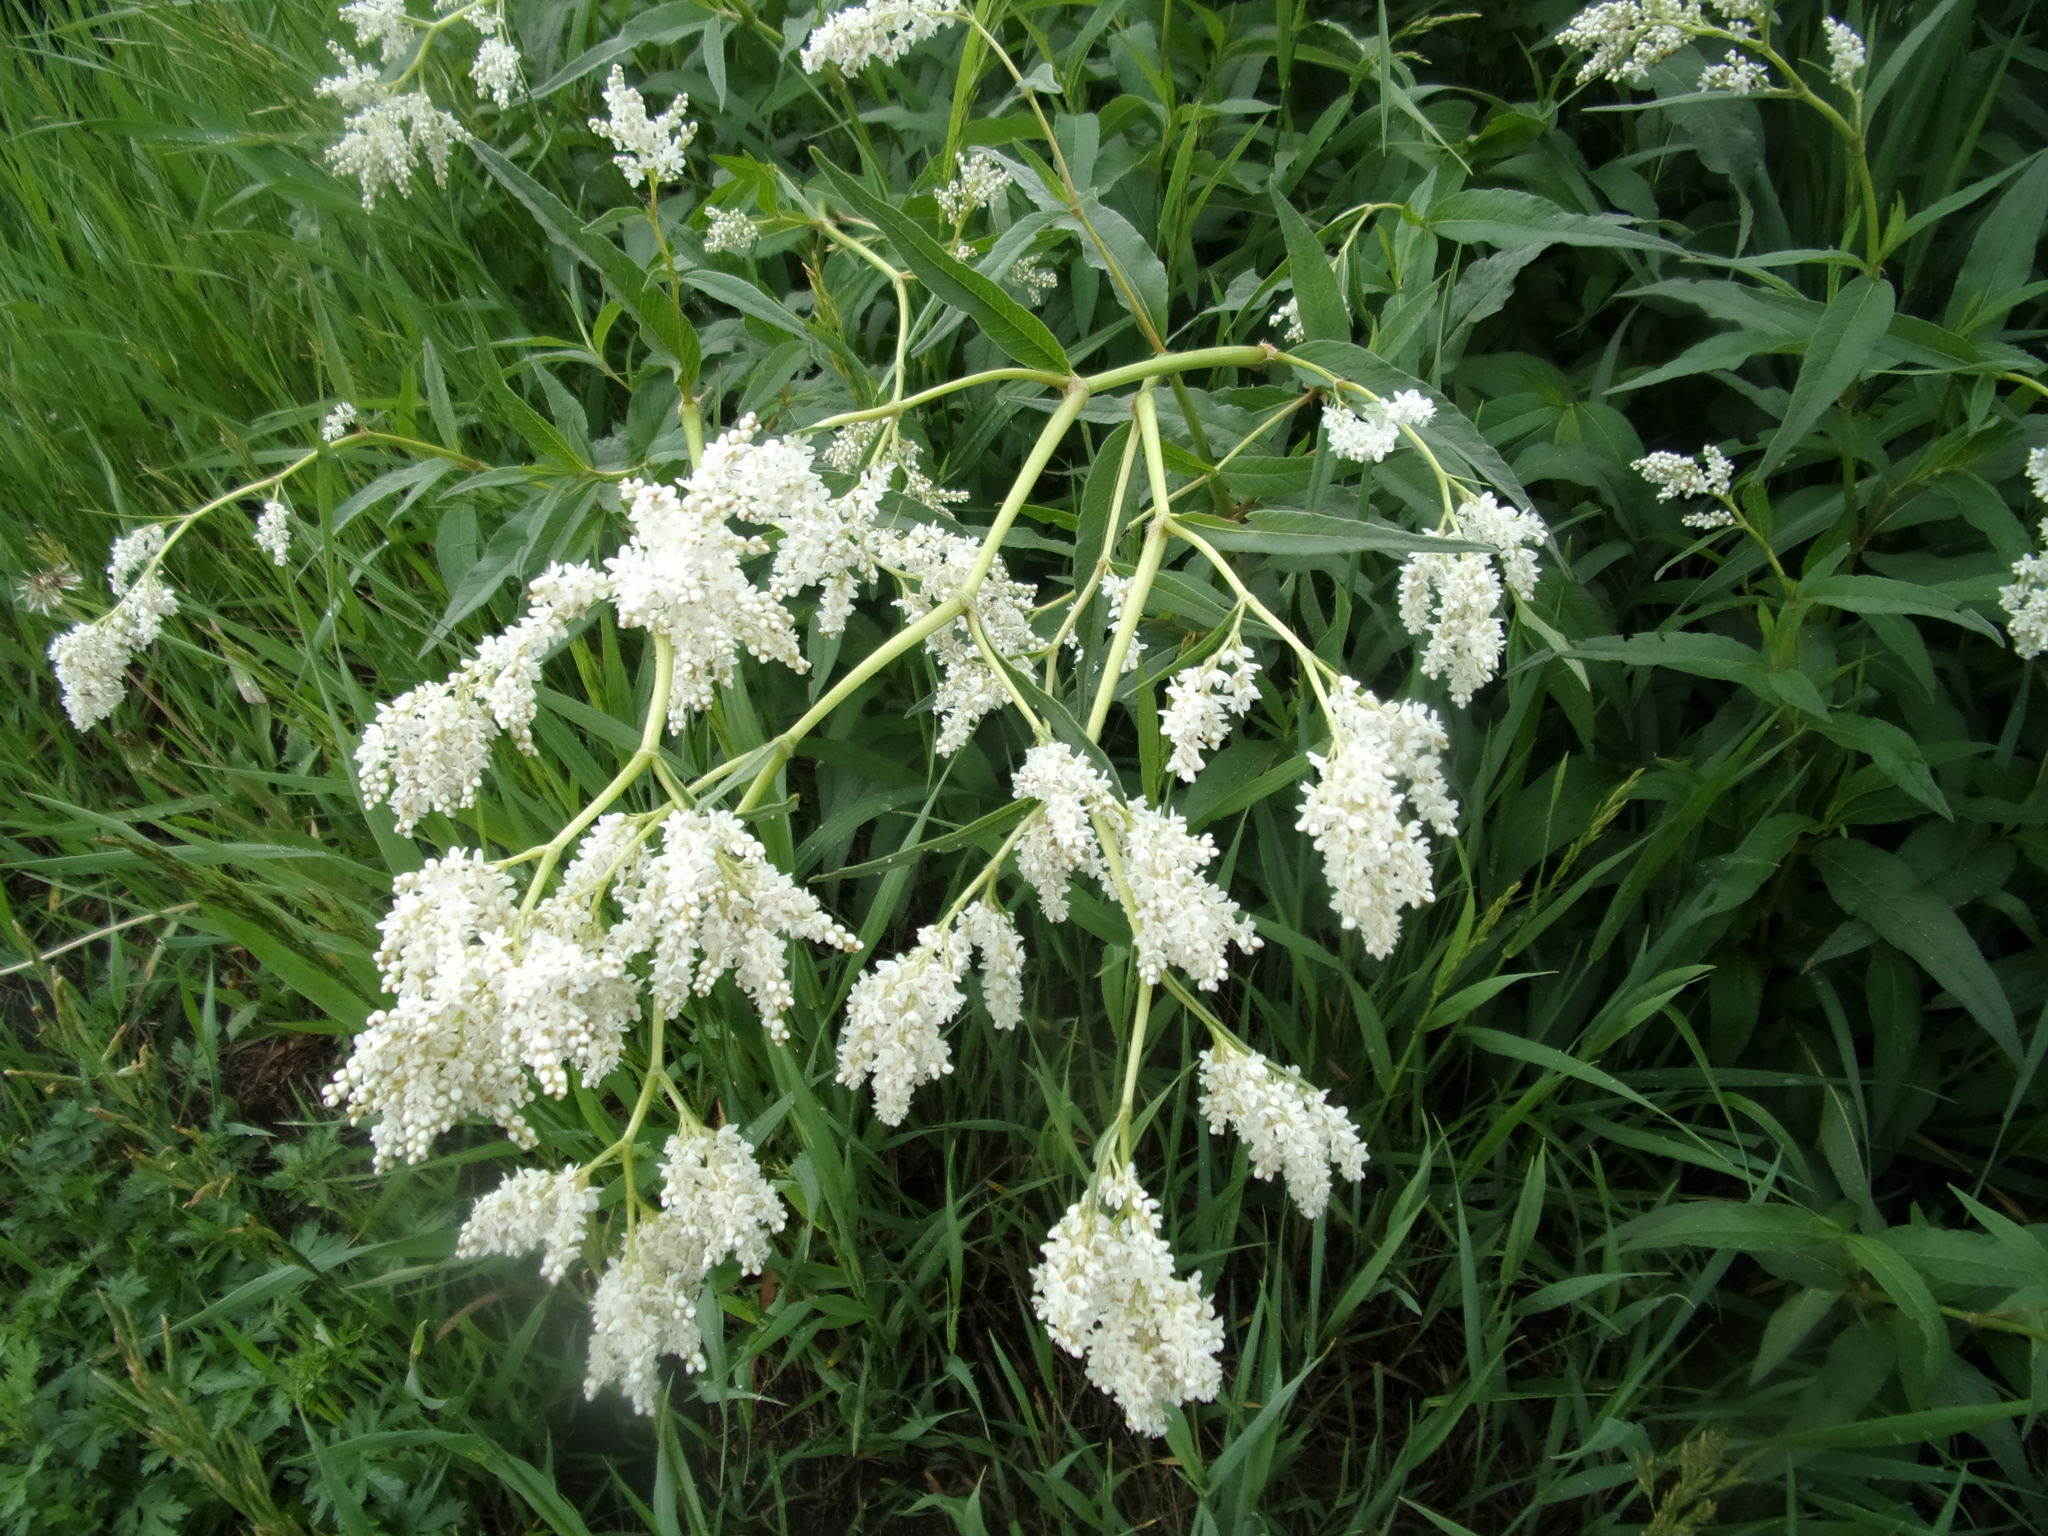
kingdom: Plantae
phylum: Tracheophyta
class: Magnoliopsida
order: Caryophyllales
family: Polygonaceae
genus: Koenigia
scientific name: Koenigia alpina
